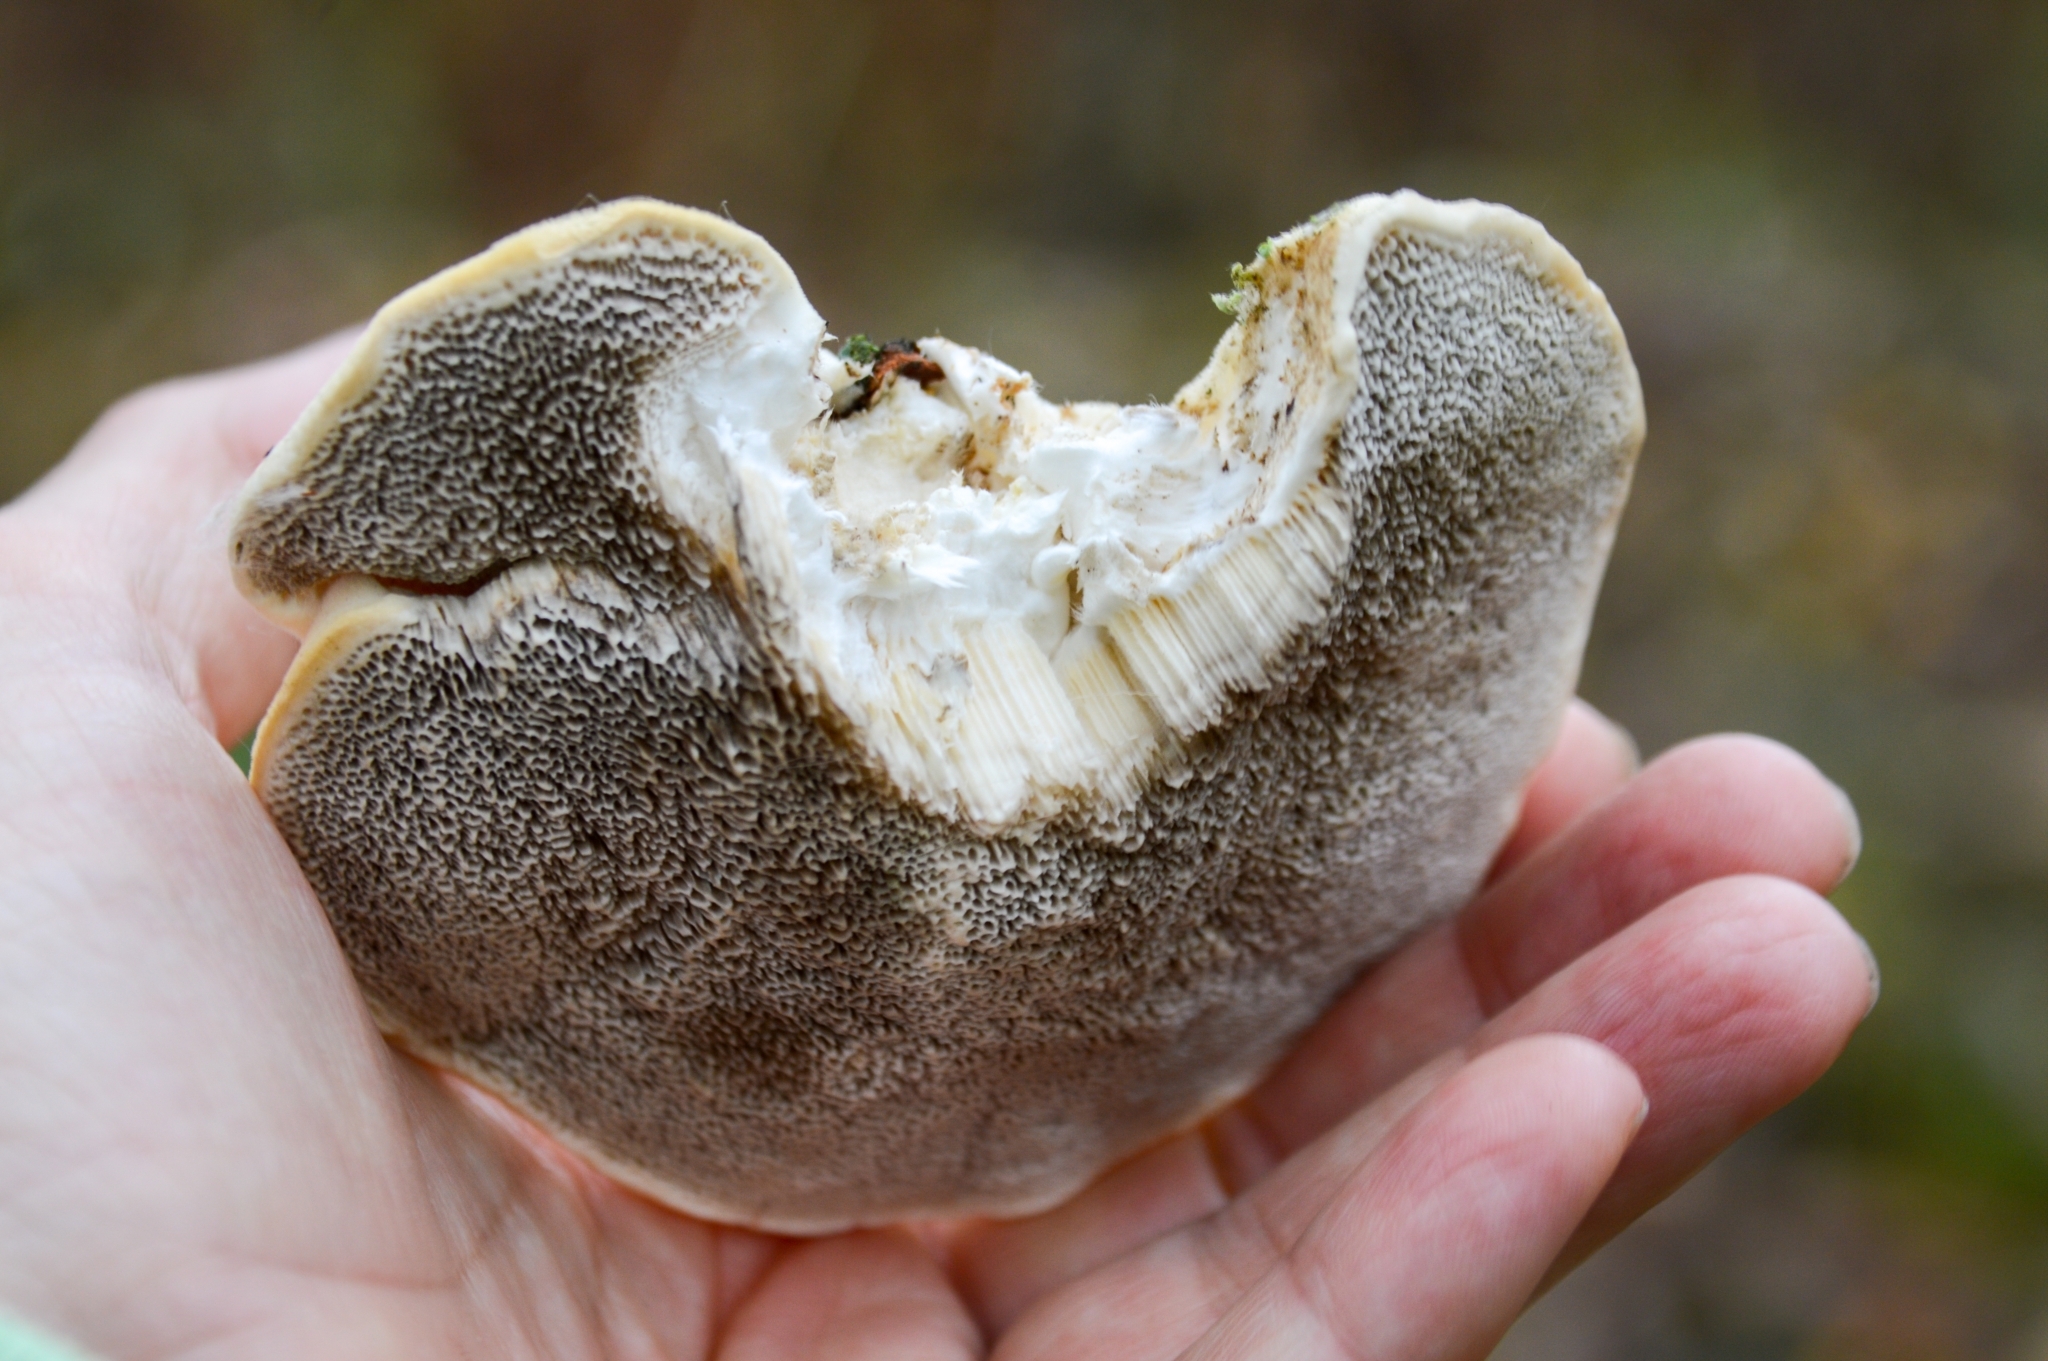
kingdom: Fungi
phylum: Basidiomycota
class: Agaricomycetes
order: Polyporales
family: Polyporaceae
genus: Trametes
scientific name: Trametes pubescens
